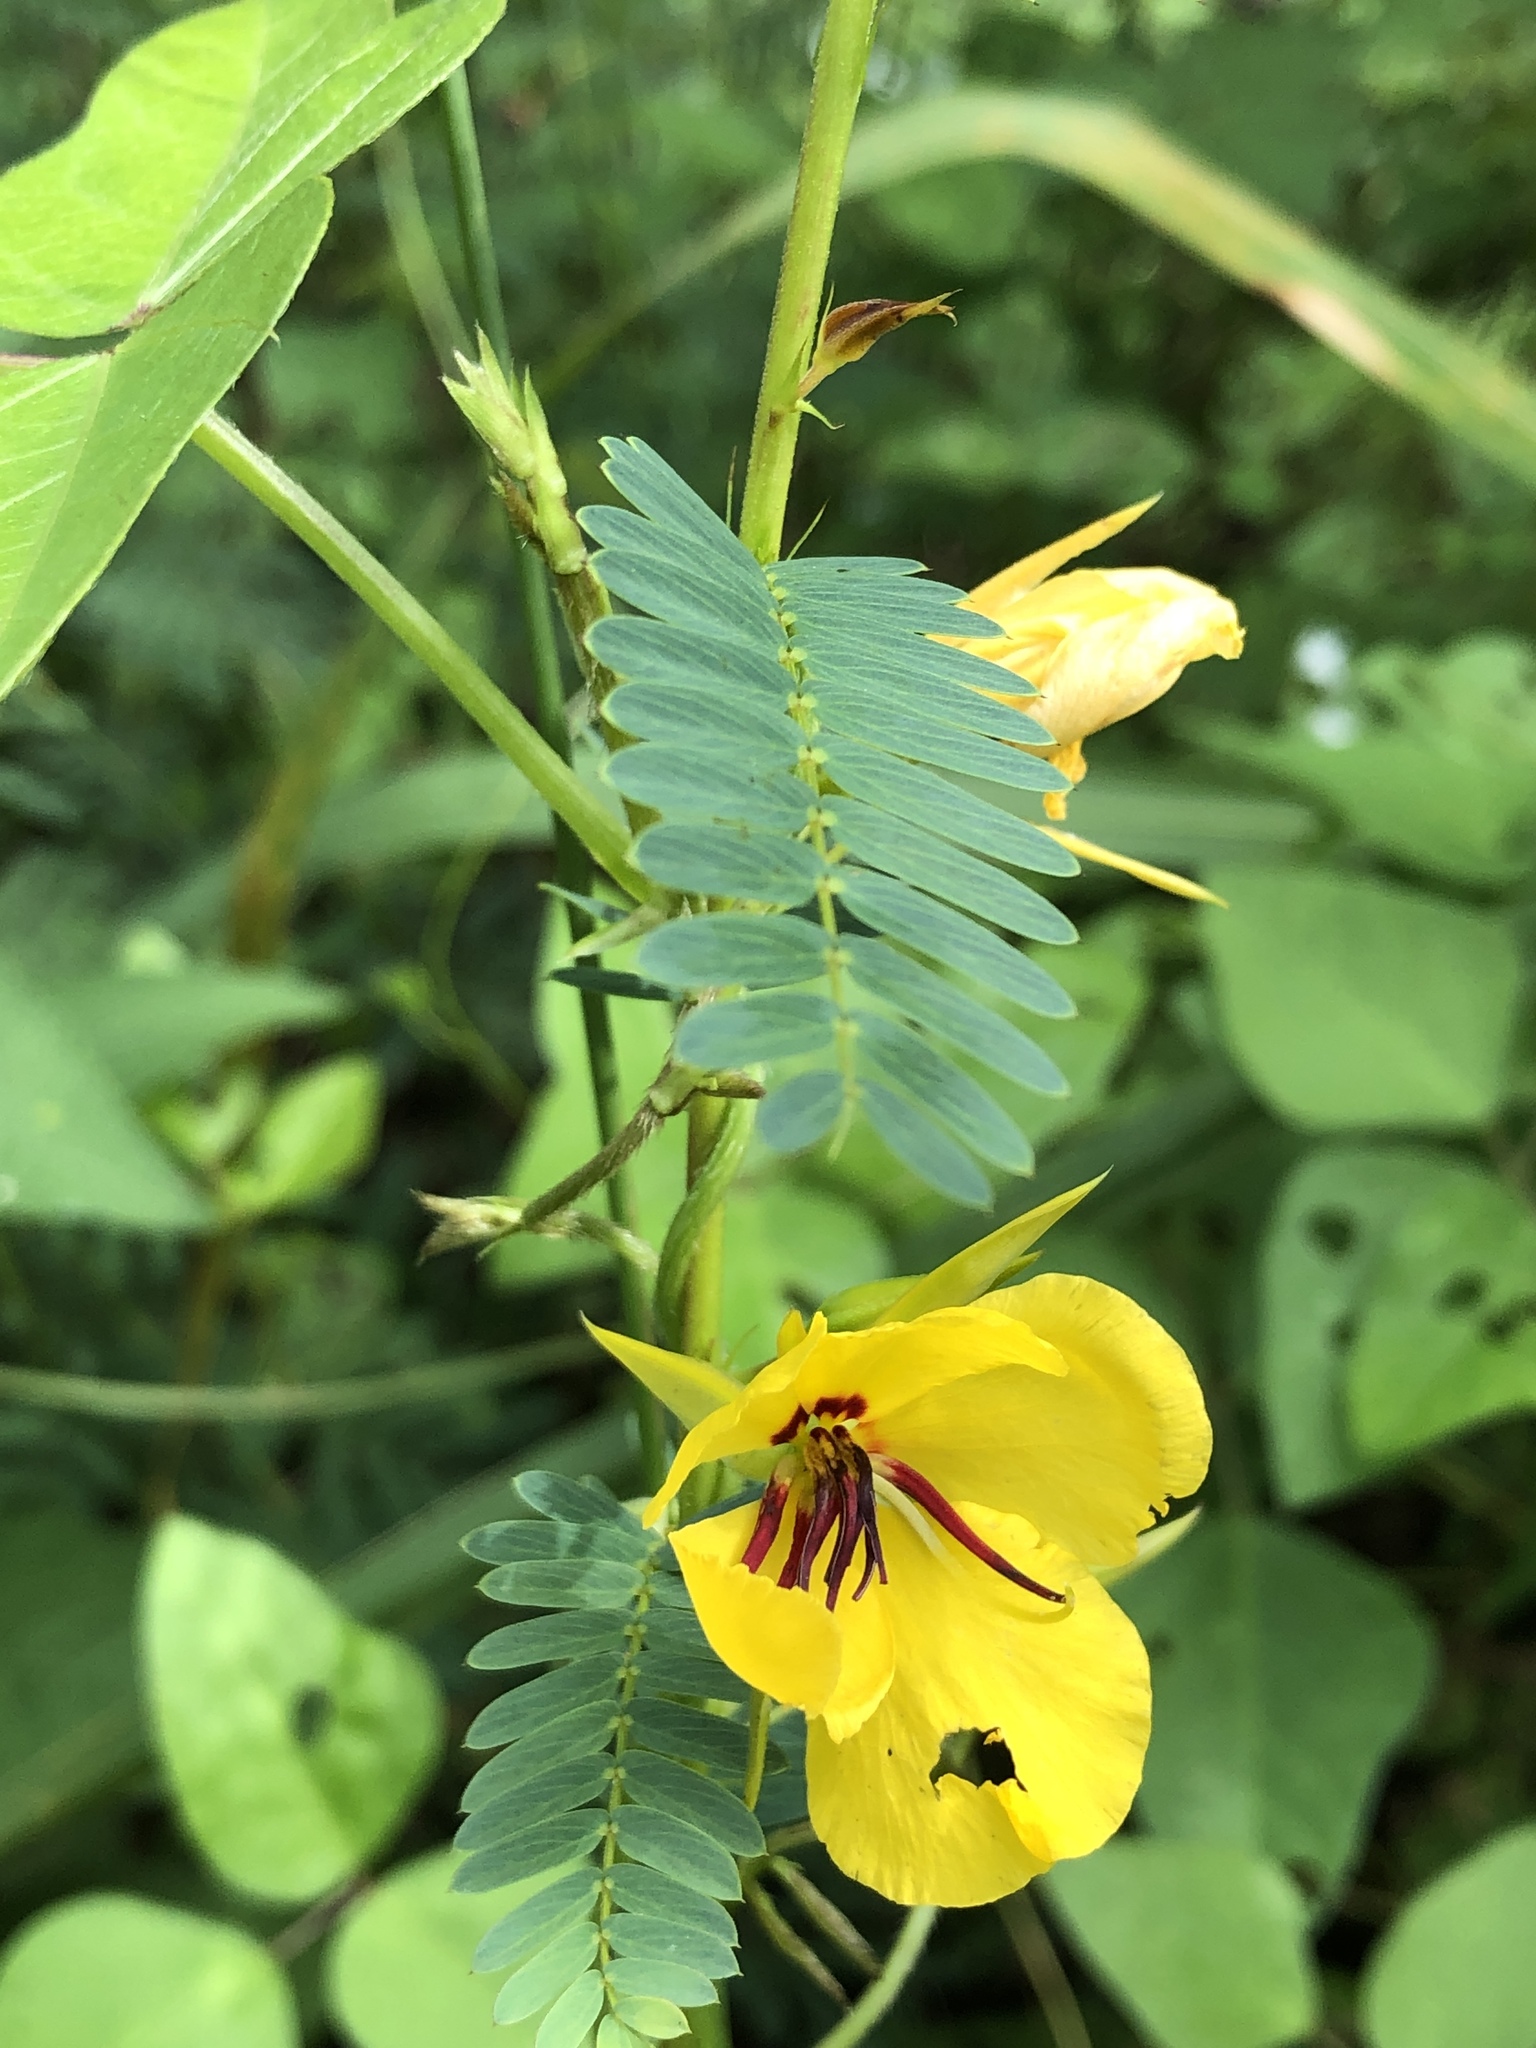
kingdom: Plantae
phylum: Tracheophyta
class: Magnoliopsida
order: Fabales
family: Fabaceae
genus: Chamaecrista
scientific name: Chamaecrista fasciculata
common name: Golden cassia
